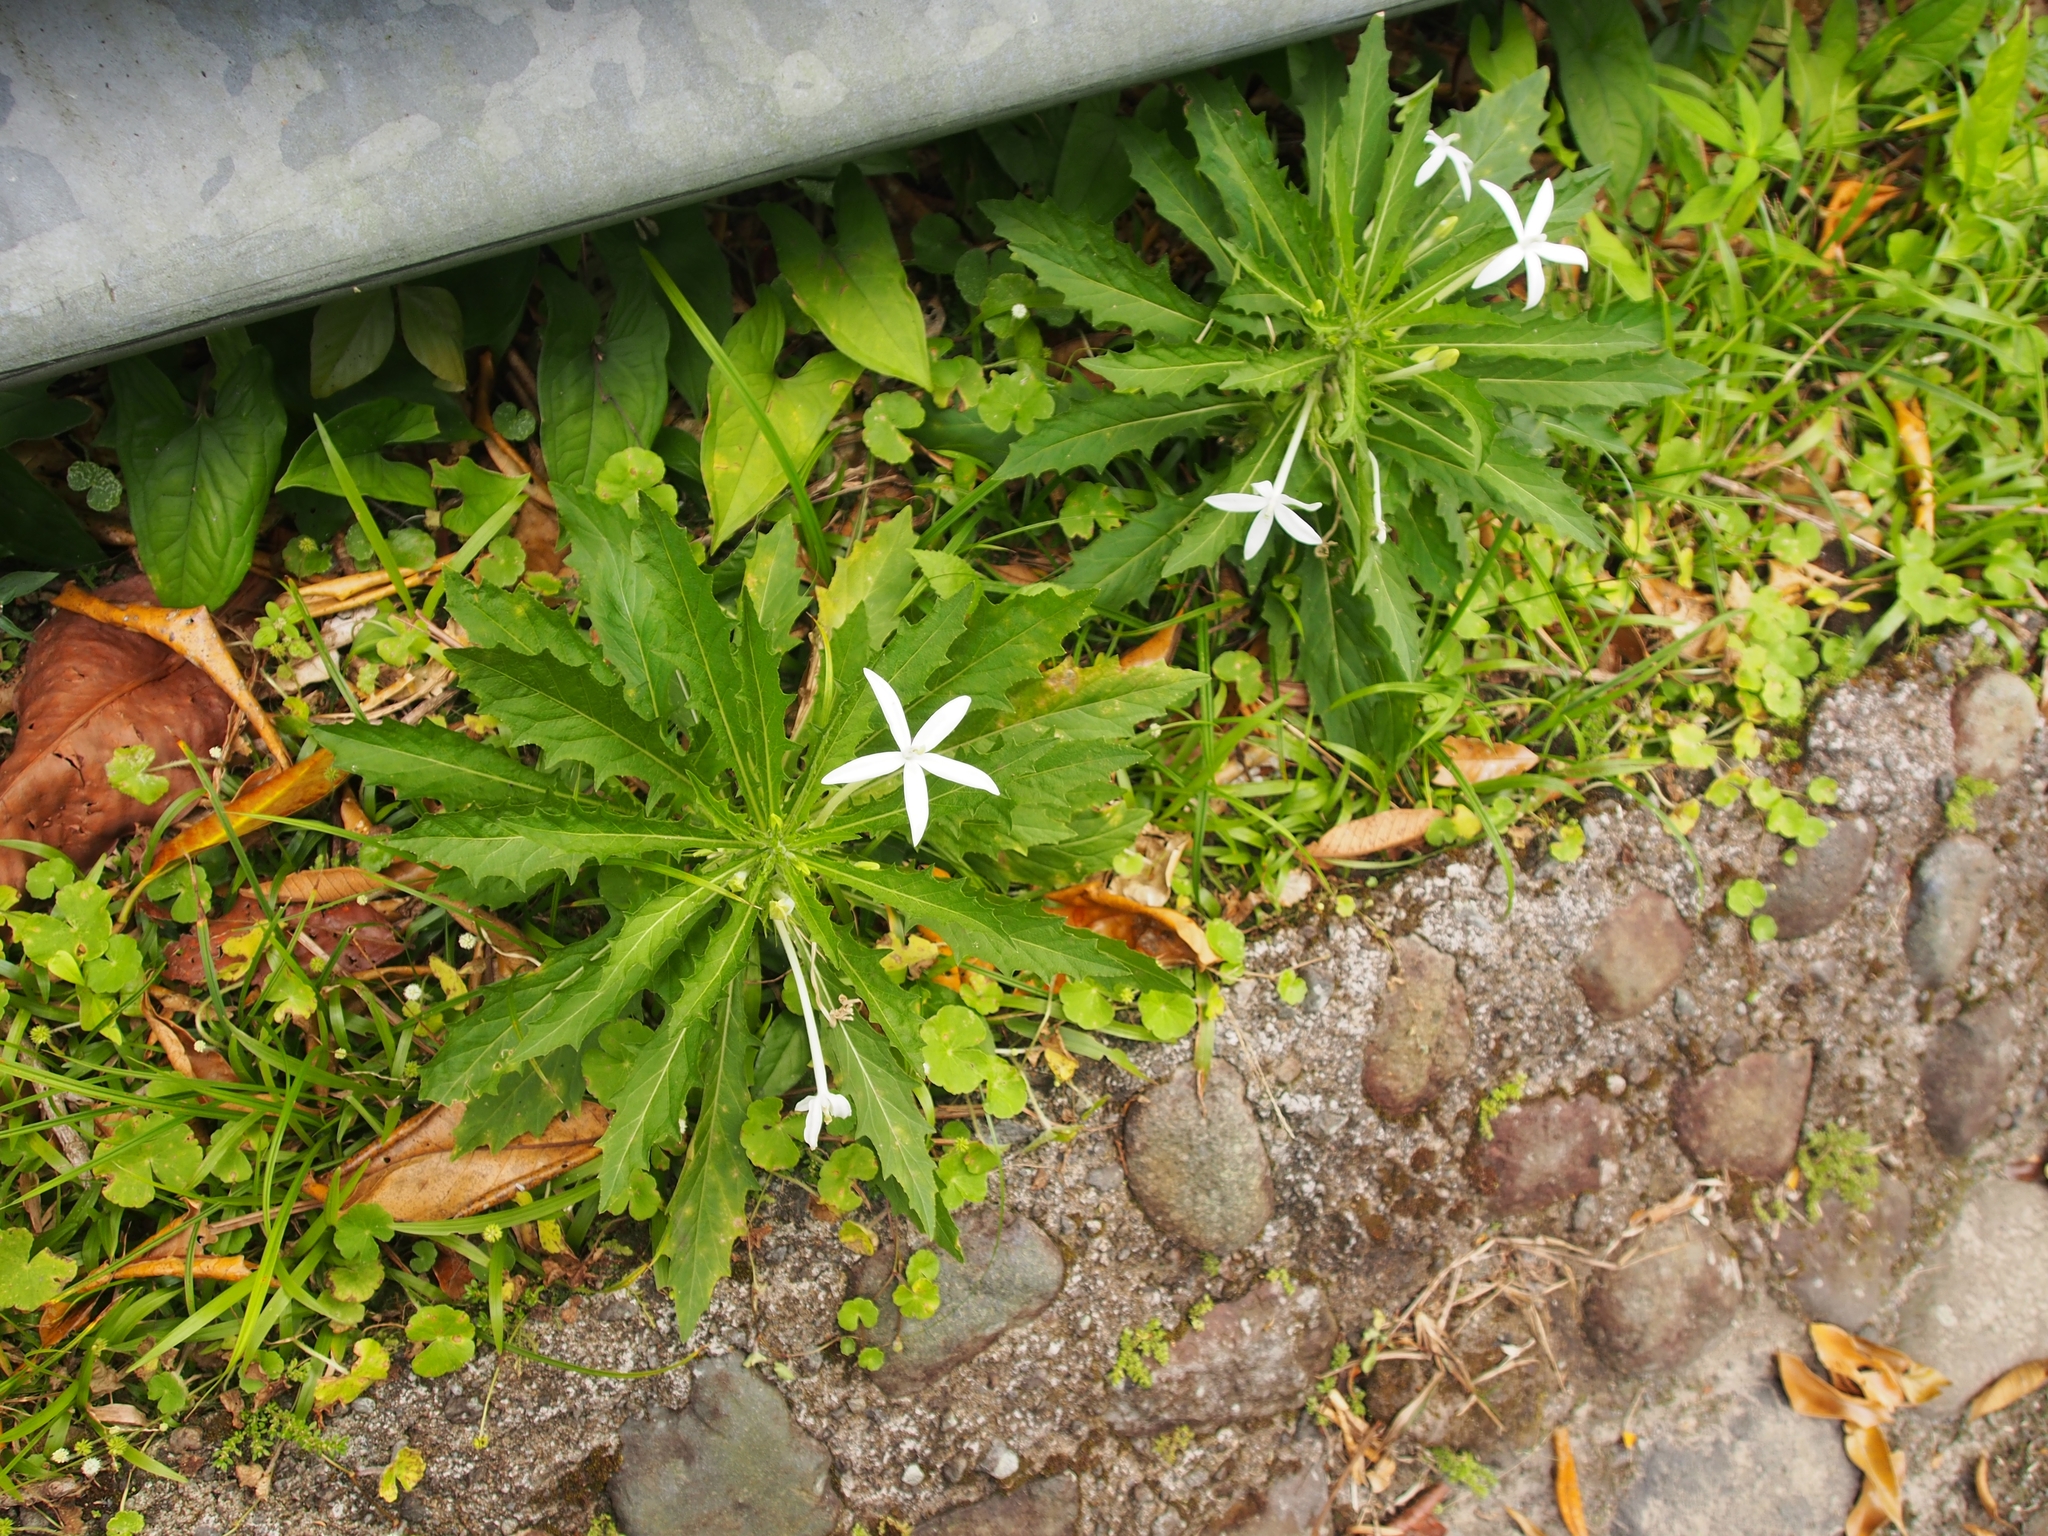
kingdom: Plantae
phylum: Tracheophyta
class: Magnoliopsida
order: Asterales
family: Campanulaceae
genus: Hippobroma
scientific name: Hippobroma longiflora
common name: Madamfate
